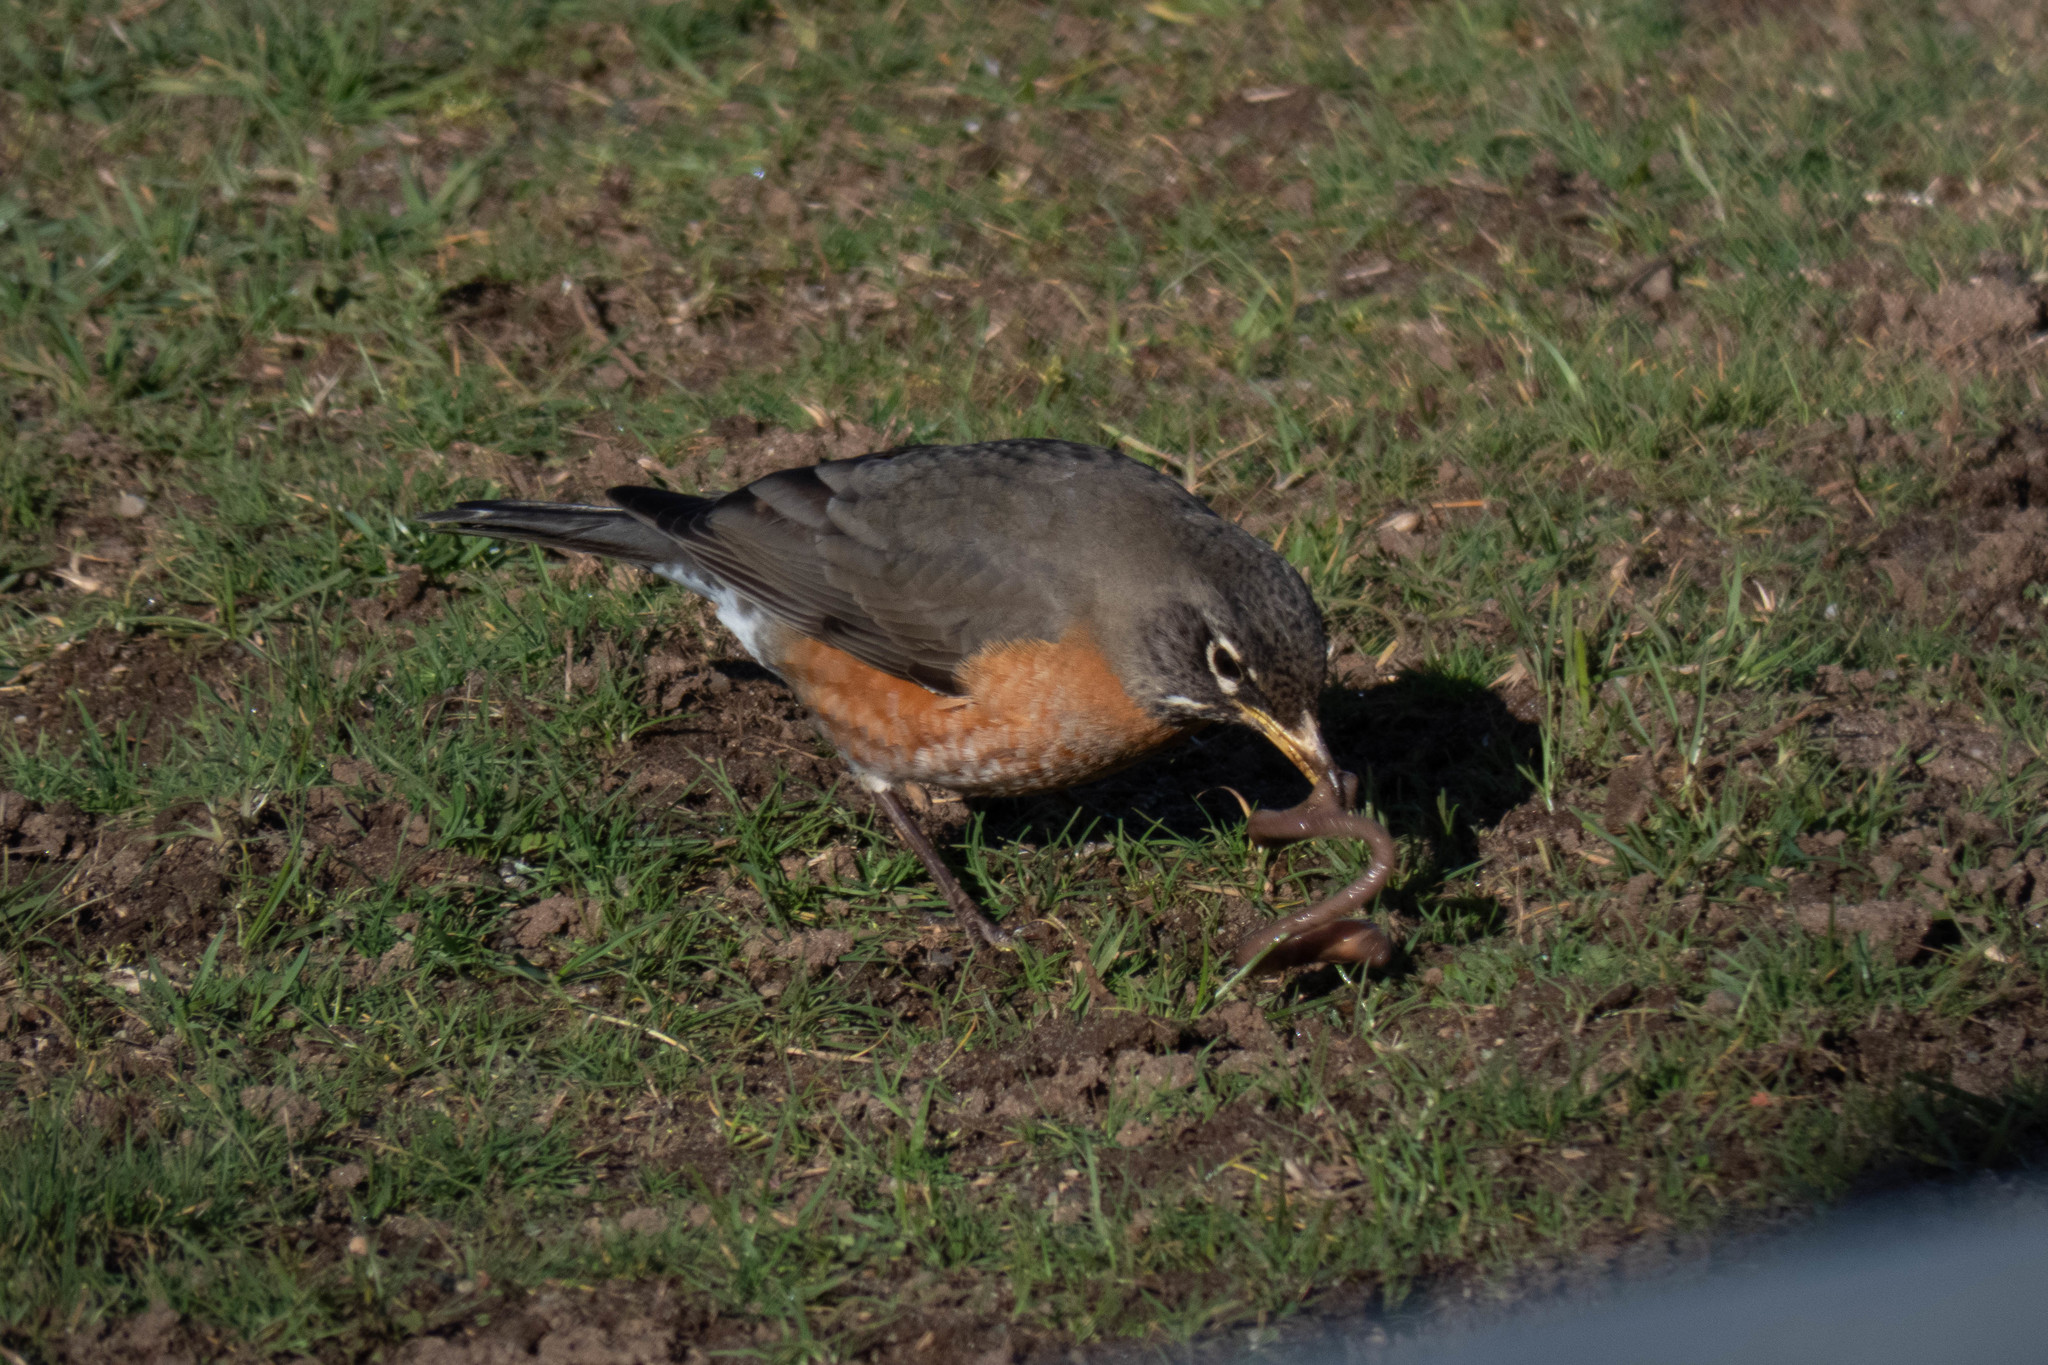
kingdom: Animalia
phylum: Chordata
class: Aves
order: Passeriformes
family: Turdidae
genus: Turdus
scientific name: Turdus migratorius
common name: American robin
